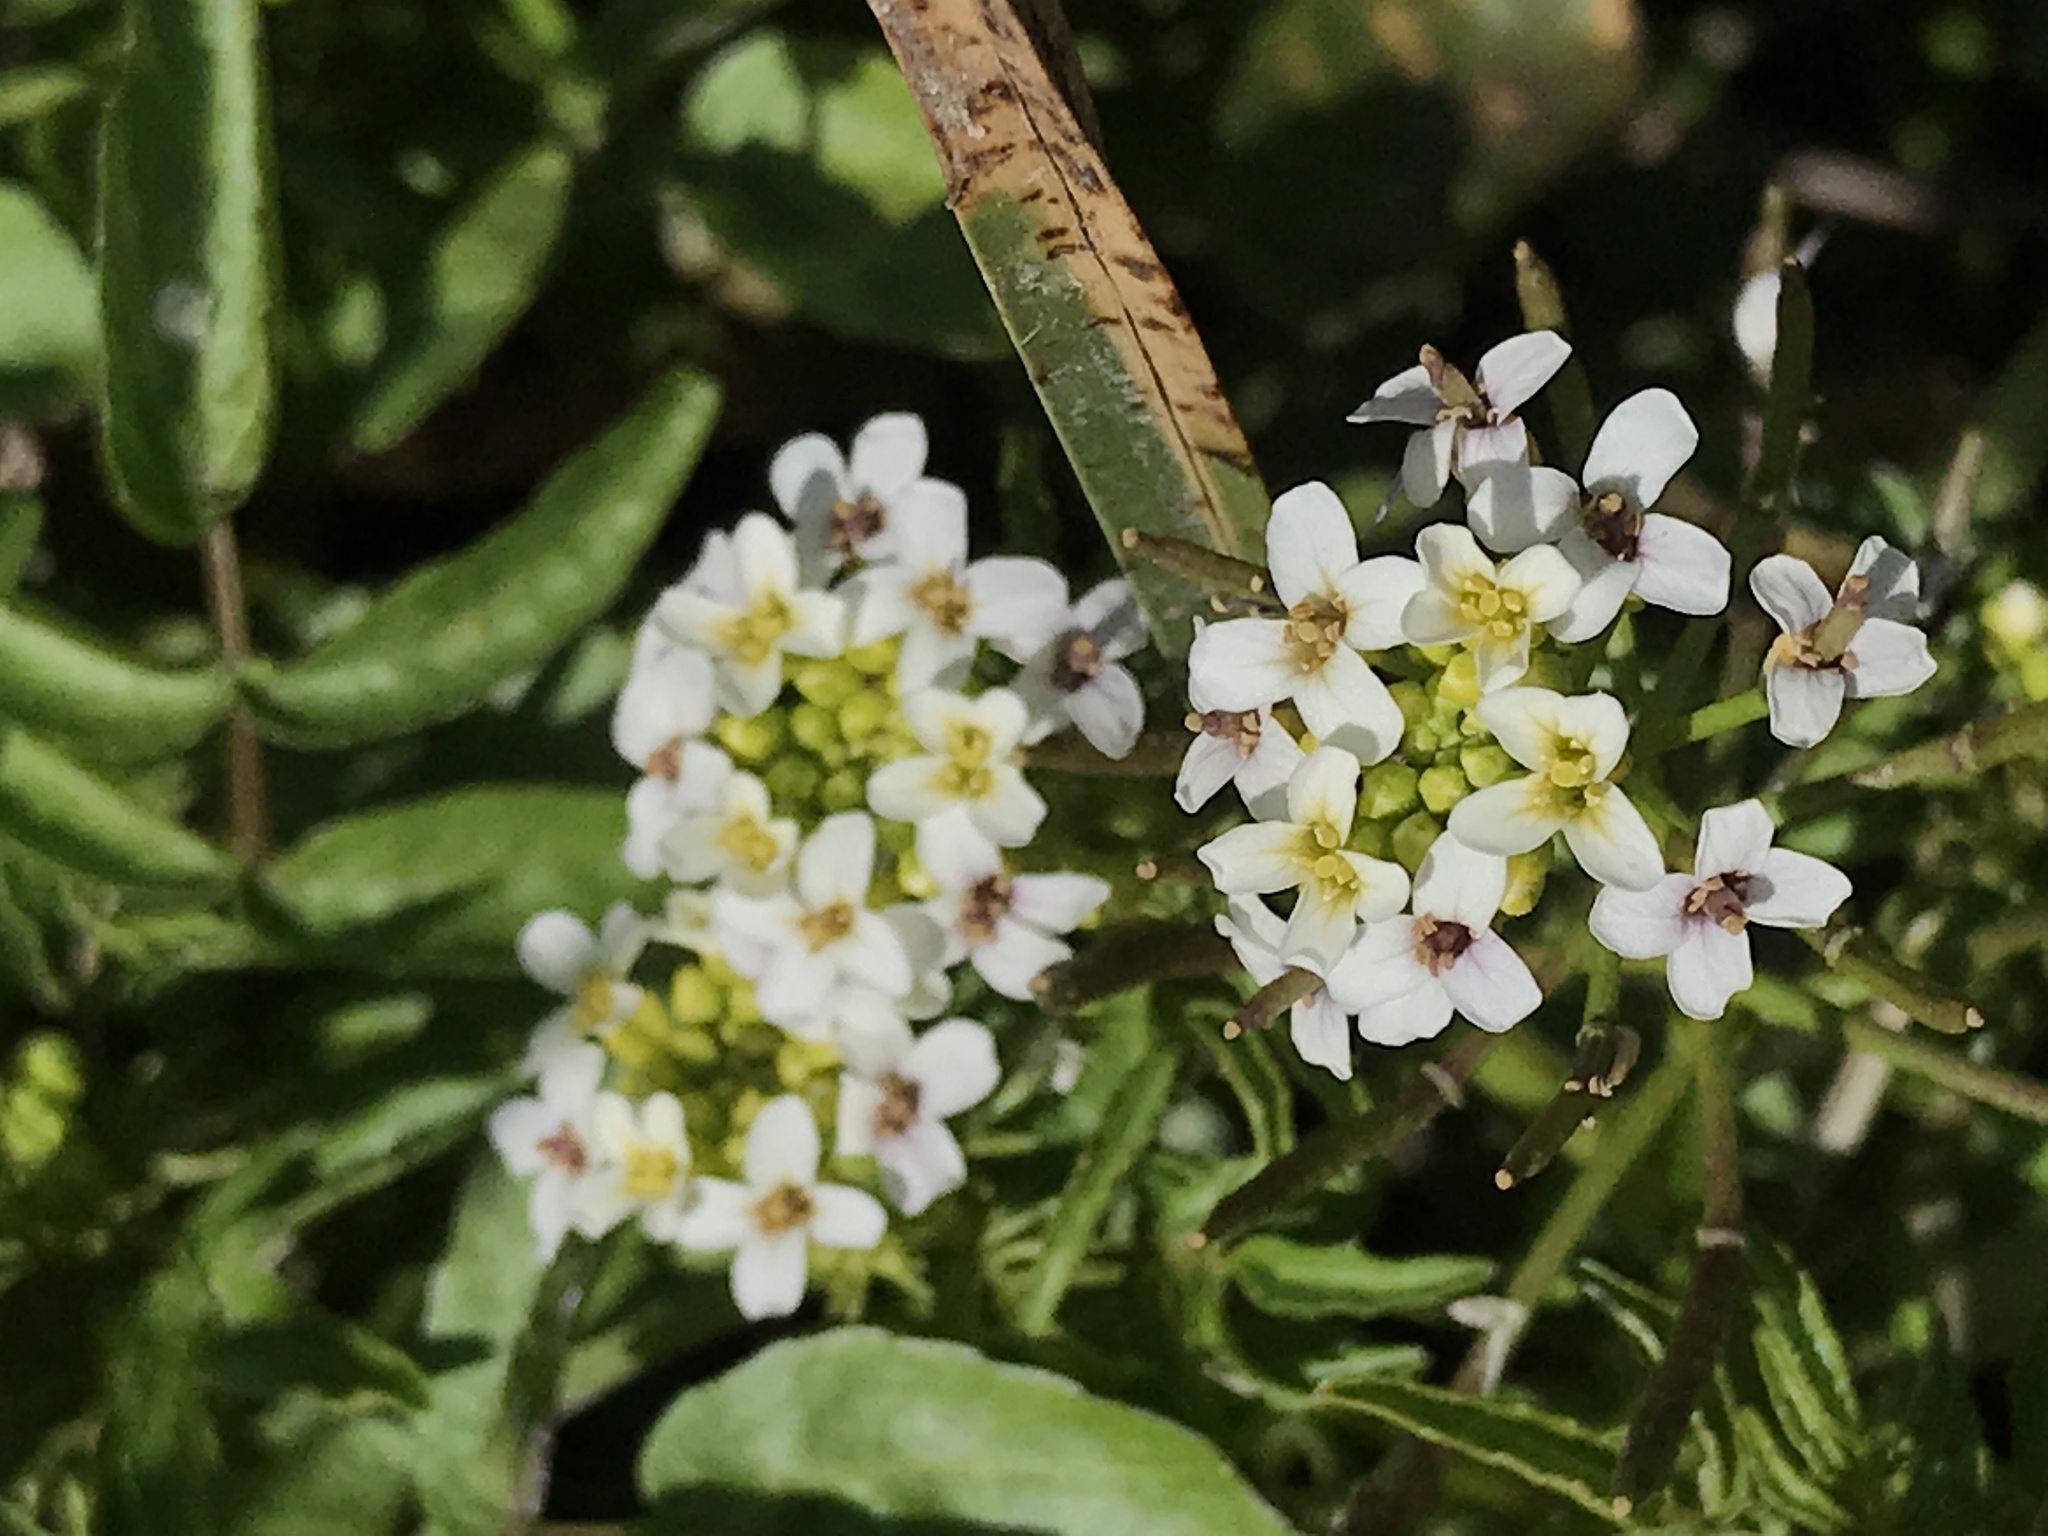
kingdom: Plantae
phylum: Tracheophyta
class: Magnoliopsida
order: Brassicales
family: Brassicaceae
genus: Nasturtium
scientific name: Nasturtium officinale
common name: Watercress
